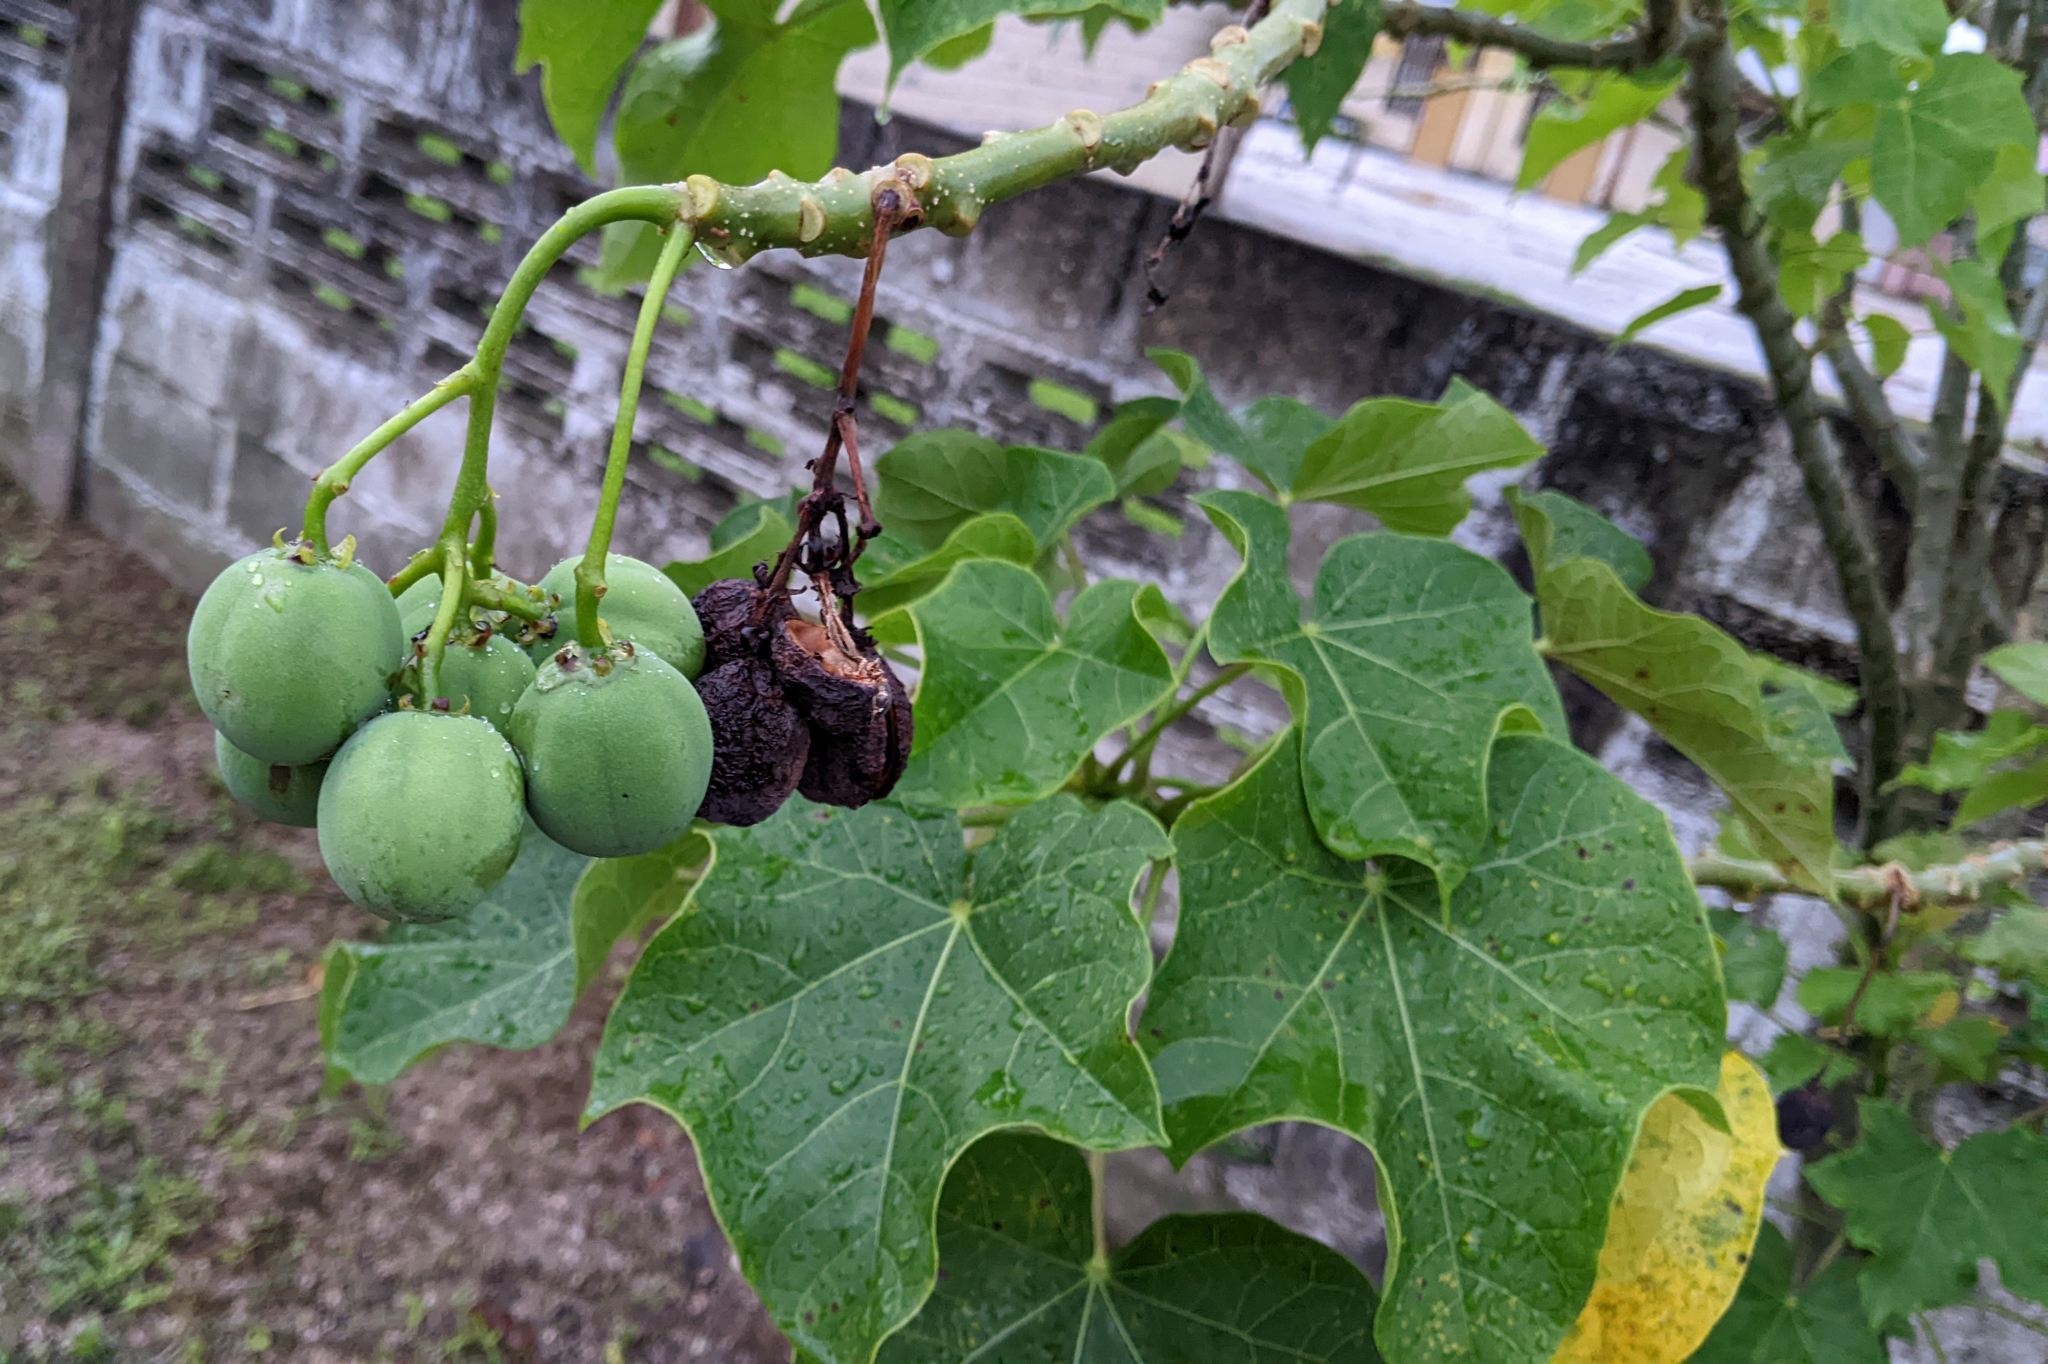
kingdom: Plantae
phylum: Tracheophyta
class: Magnoliopsida
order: Malpighiales
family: Euphorbiaceae
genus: Jatropha
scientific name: Jatropha curcas
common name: Barbados nut
